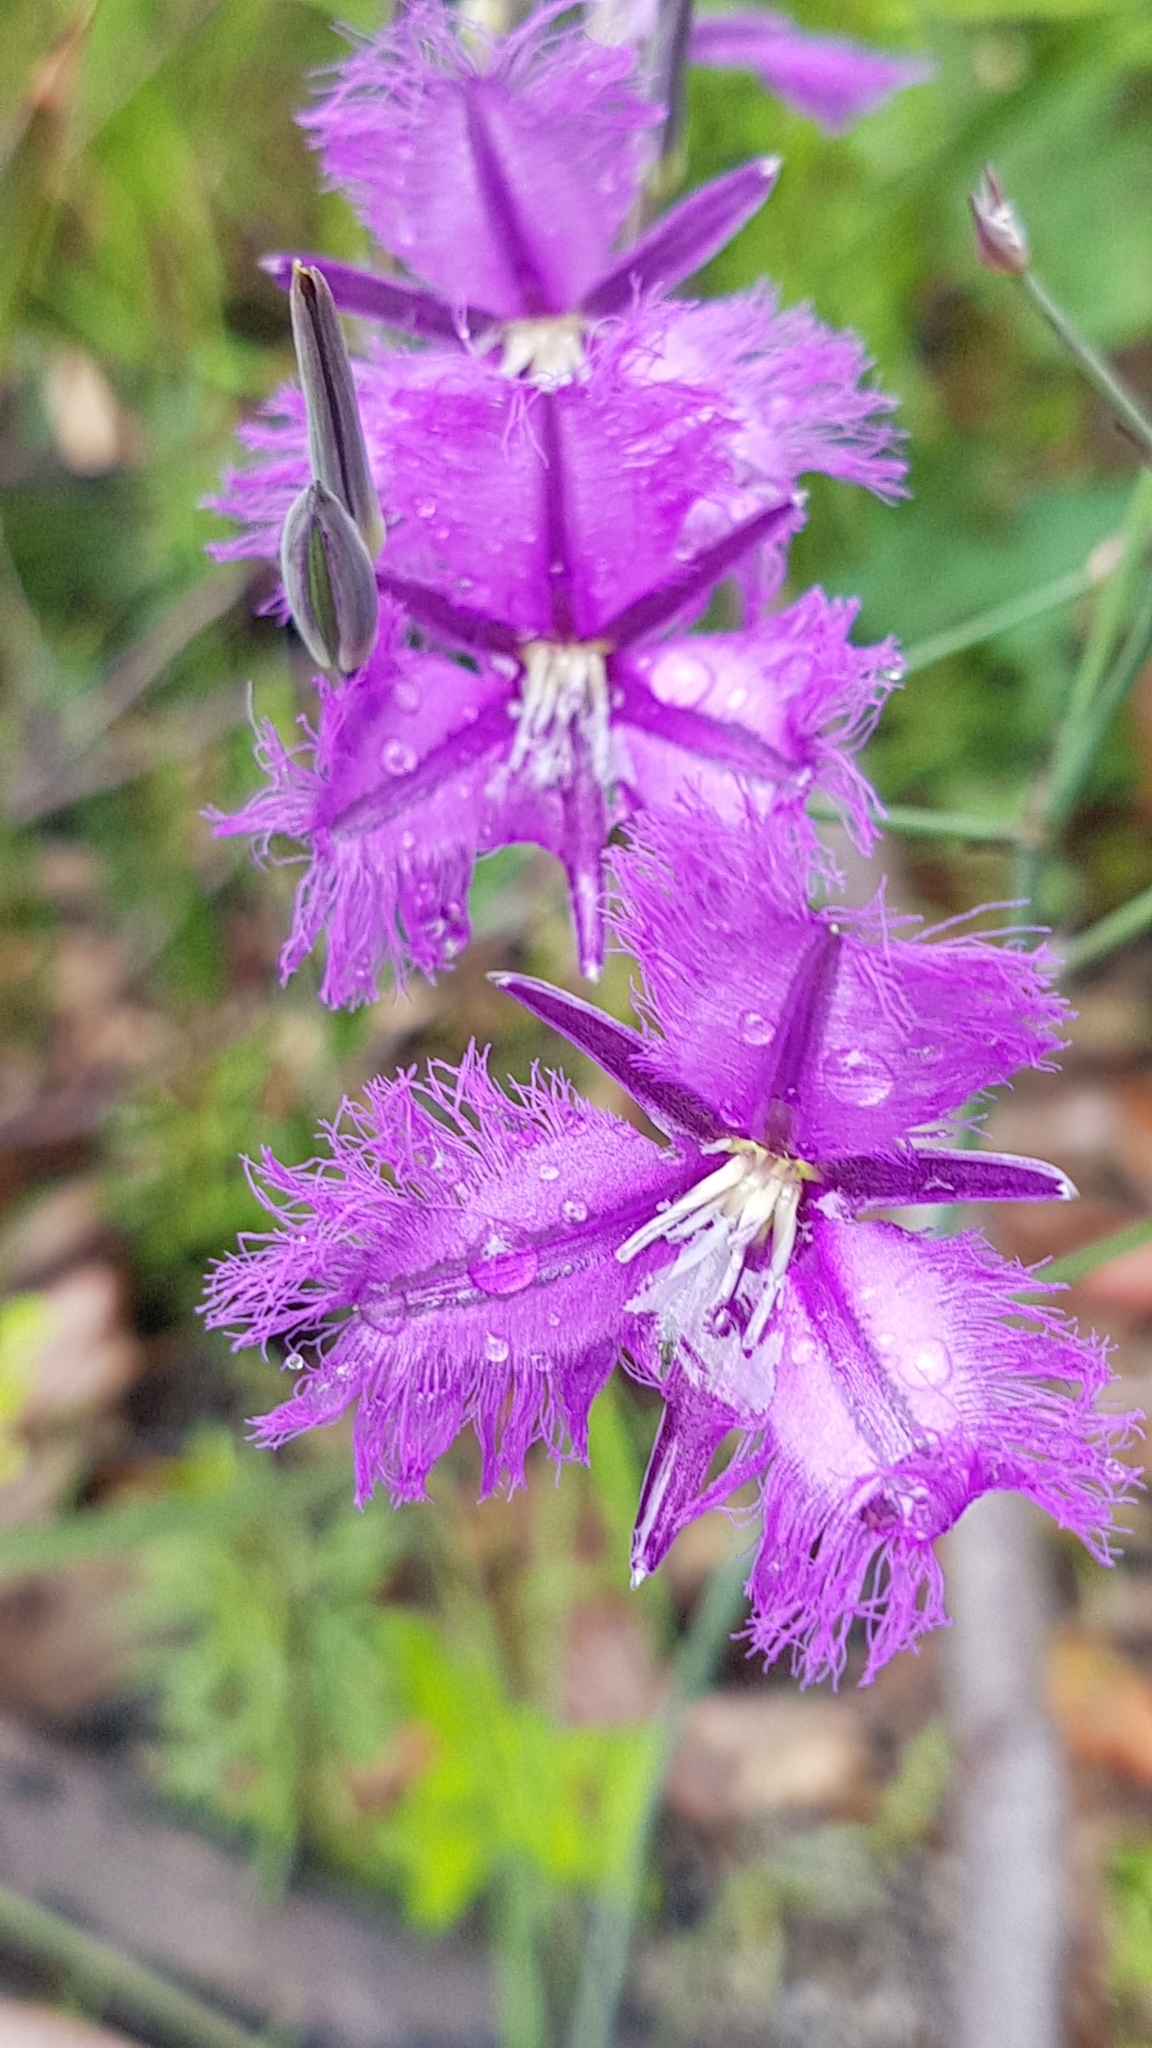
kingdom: Plantae
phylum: Tracheophyta
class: Liliopsida
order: Asparagales
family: Asparagaceae
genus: Thysanotus
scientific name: Thysanotus tuberosus
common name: Common fringed-lily
